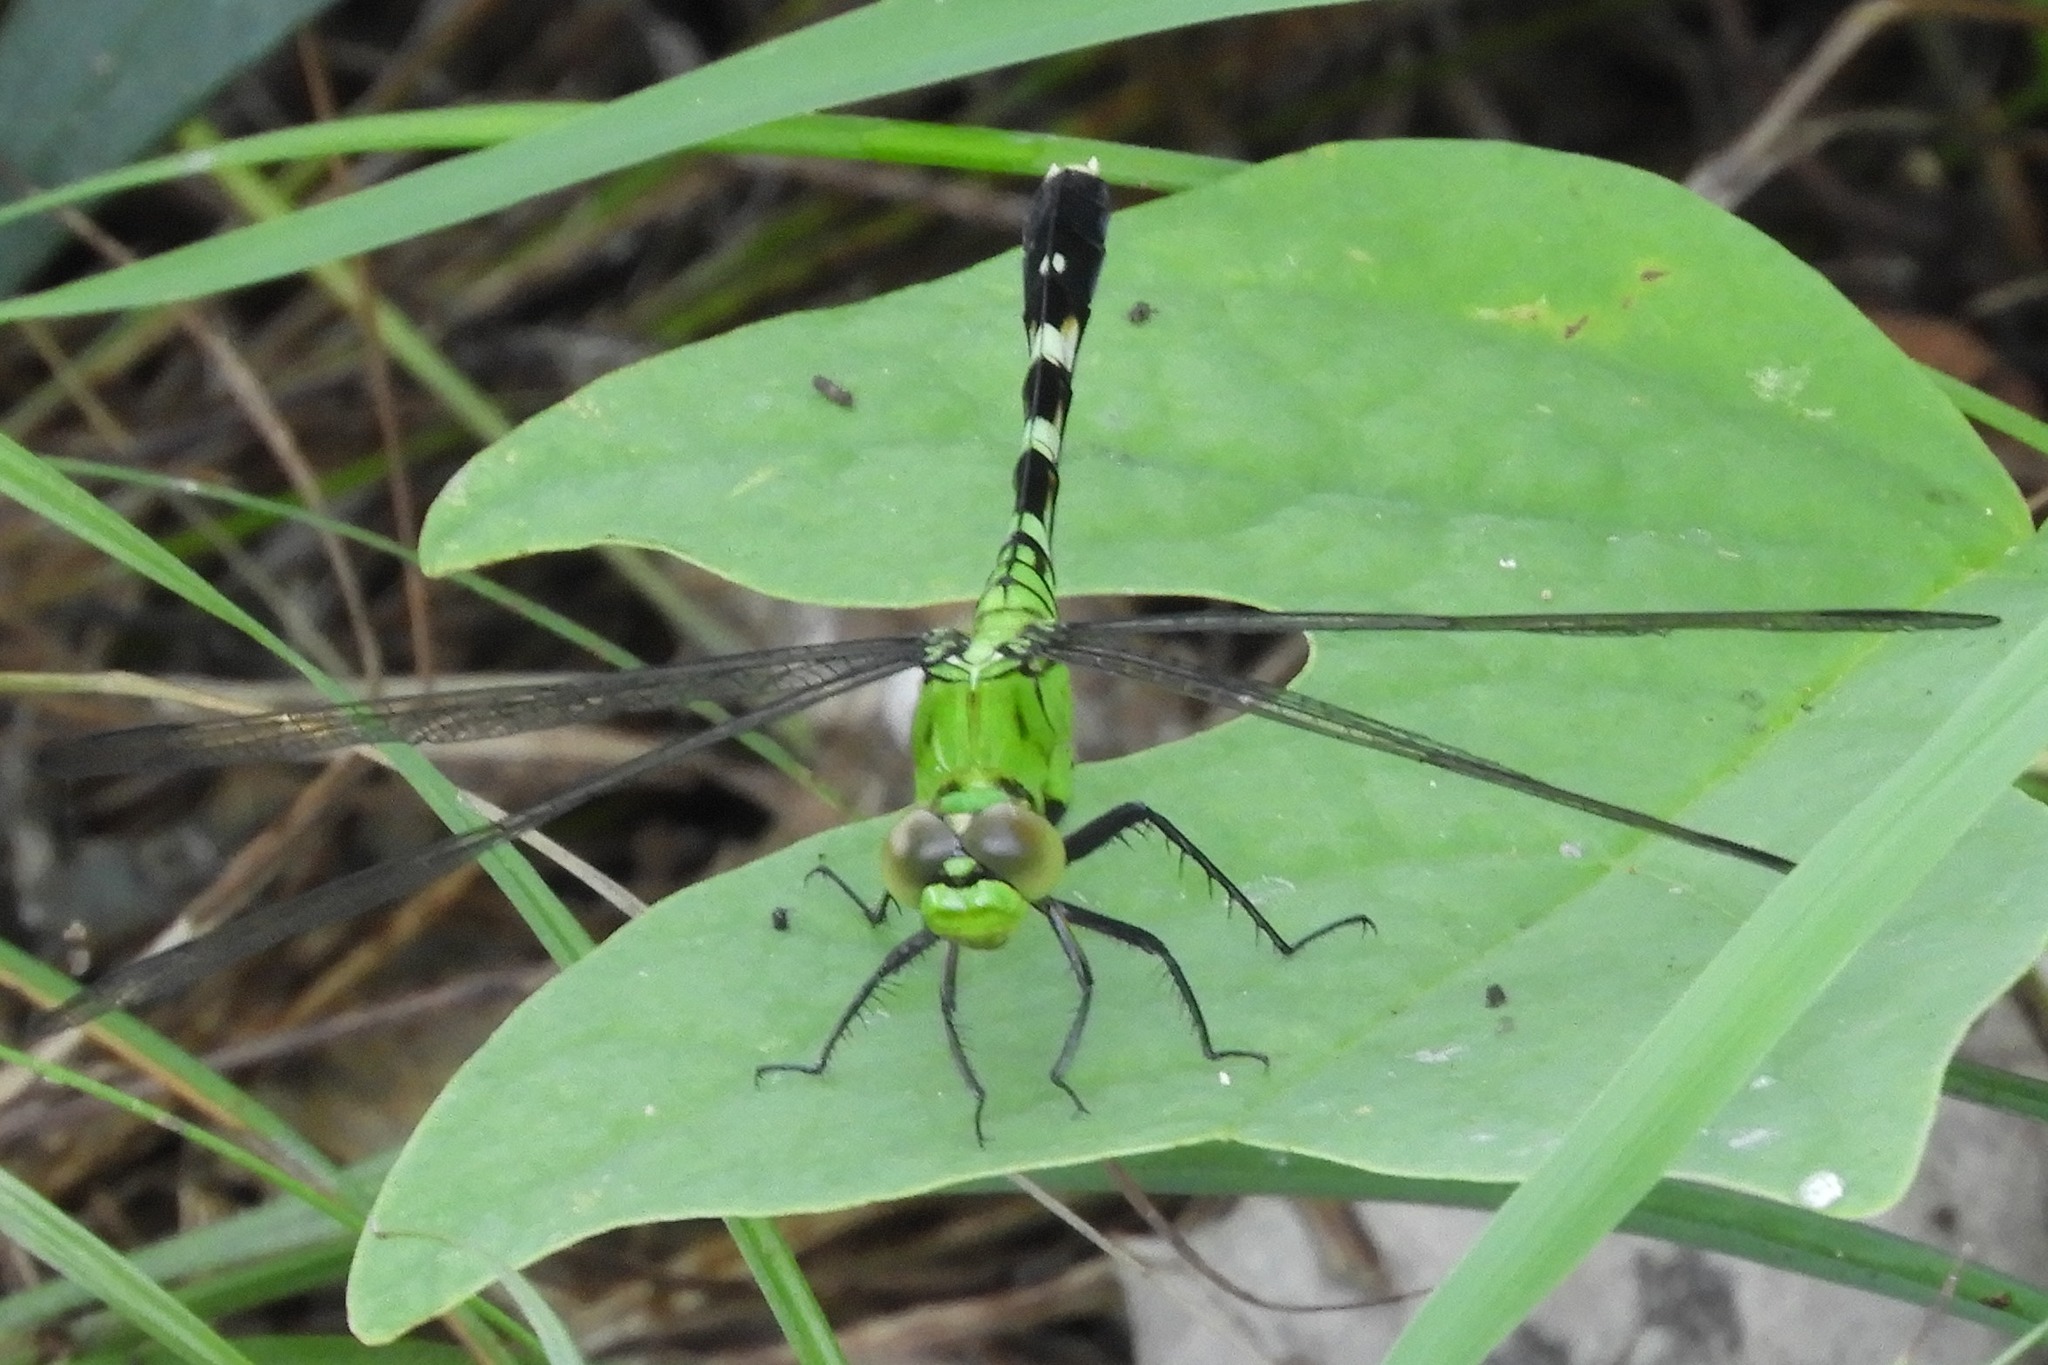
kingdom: Animalia
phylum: Arthropoda
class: Insecta
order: Odonata
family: Libellulidae
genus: Erythemis
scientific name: Erythemis simplicicollis
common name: Eastern pondhawk
